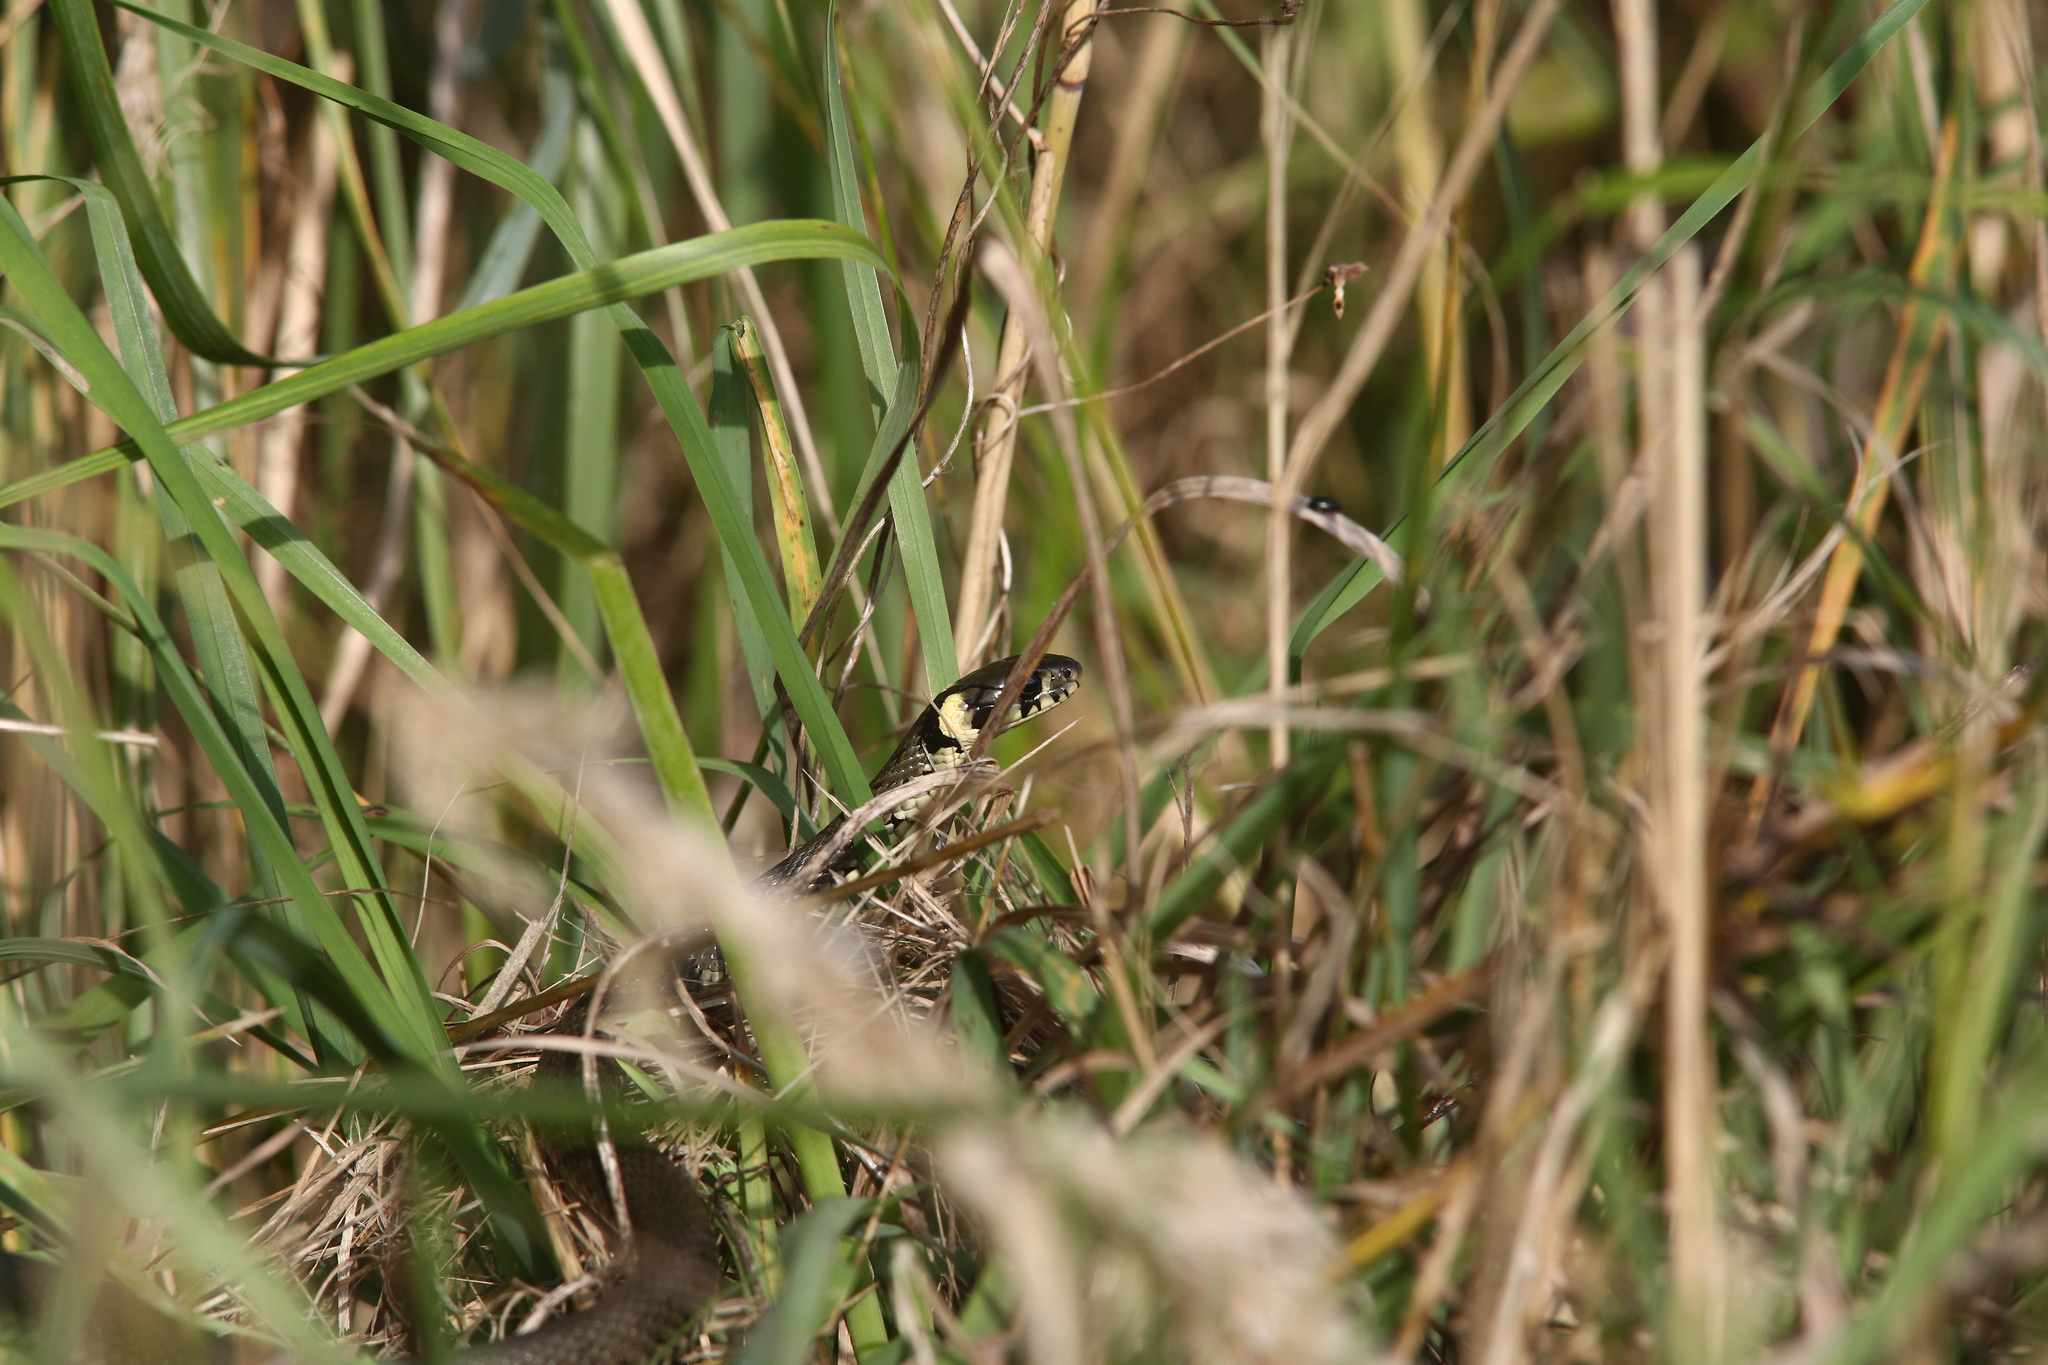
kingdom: Animalia
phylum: Chordata
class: Squamata
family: Colubridae
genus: Natrix
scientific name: Natrix natrix
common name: Grass snake
